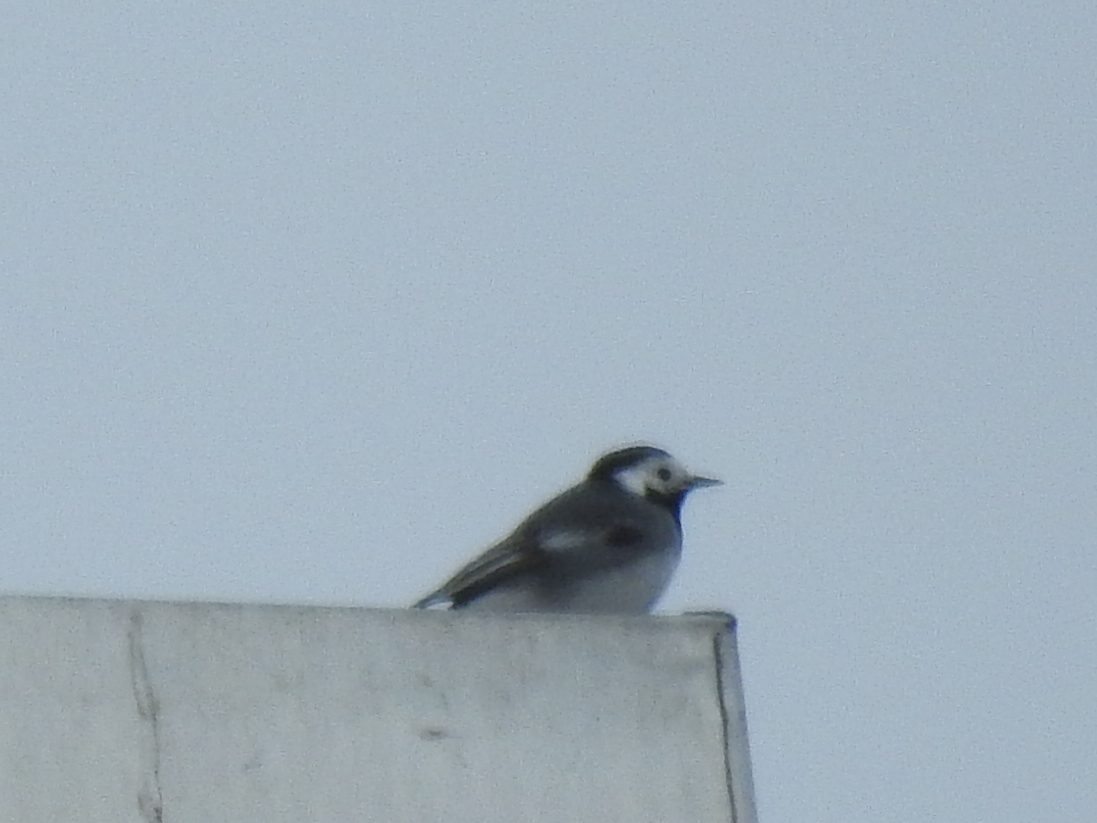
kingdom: Animalia
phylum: Chordata
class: Aves
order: Passeriformes
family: Motacillidae
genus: Motacilla
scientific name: Motacilla alba
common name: White wagtail
